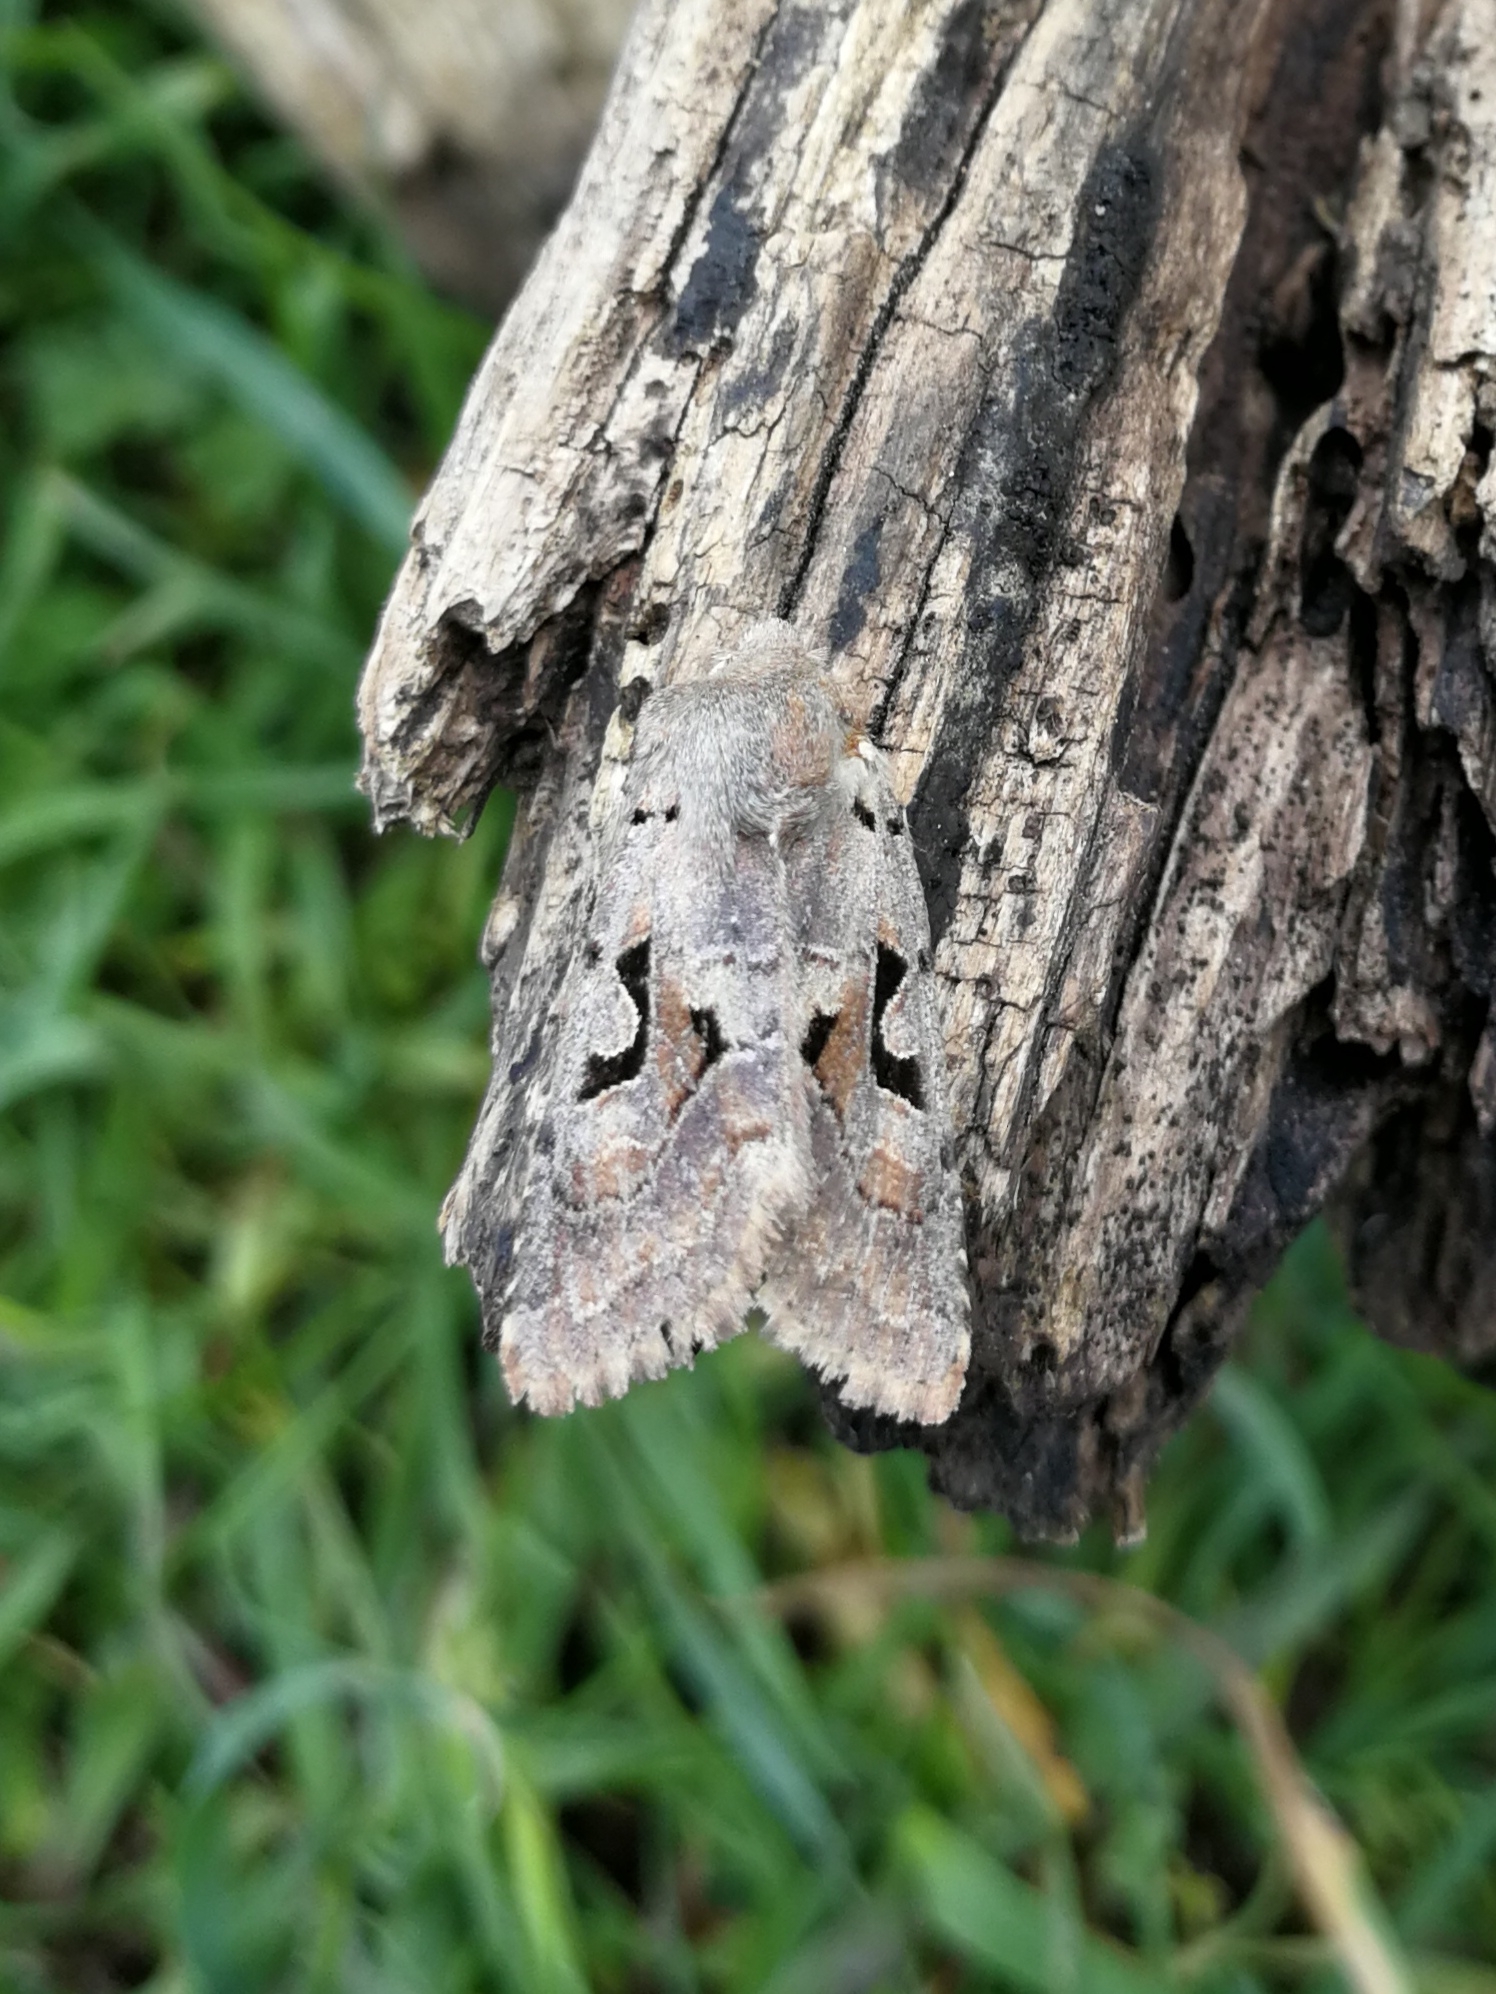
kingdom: Animalia
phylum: Arthropoda
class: Insecta
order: Lepidoptera
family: Noctuidae
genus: Orthosia
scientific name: Orthosia gothica
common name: Hebrew character
